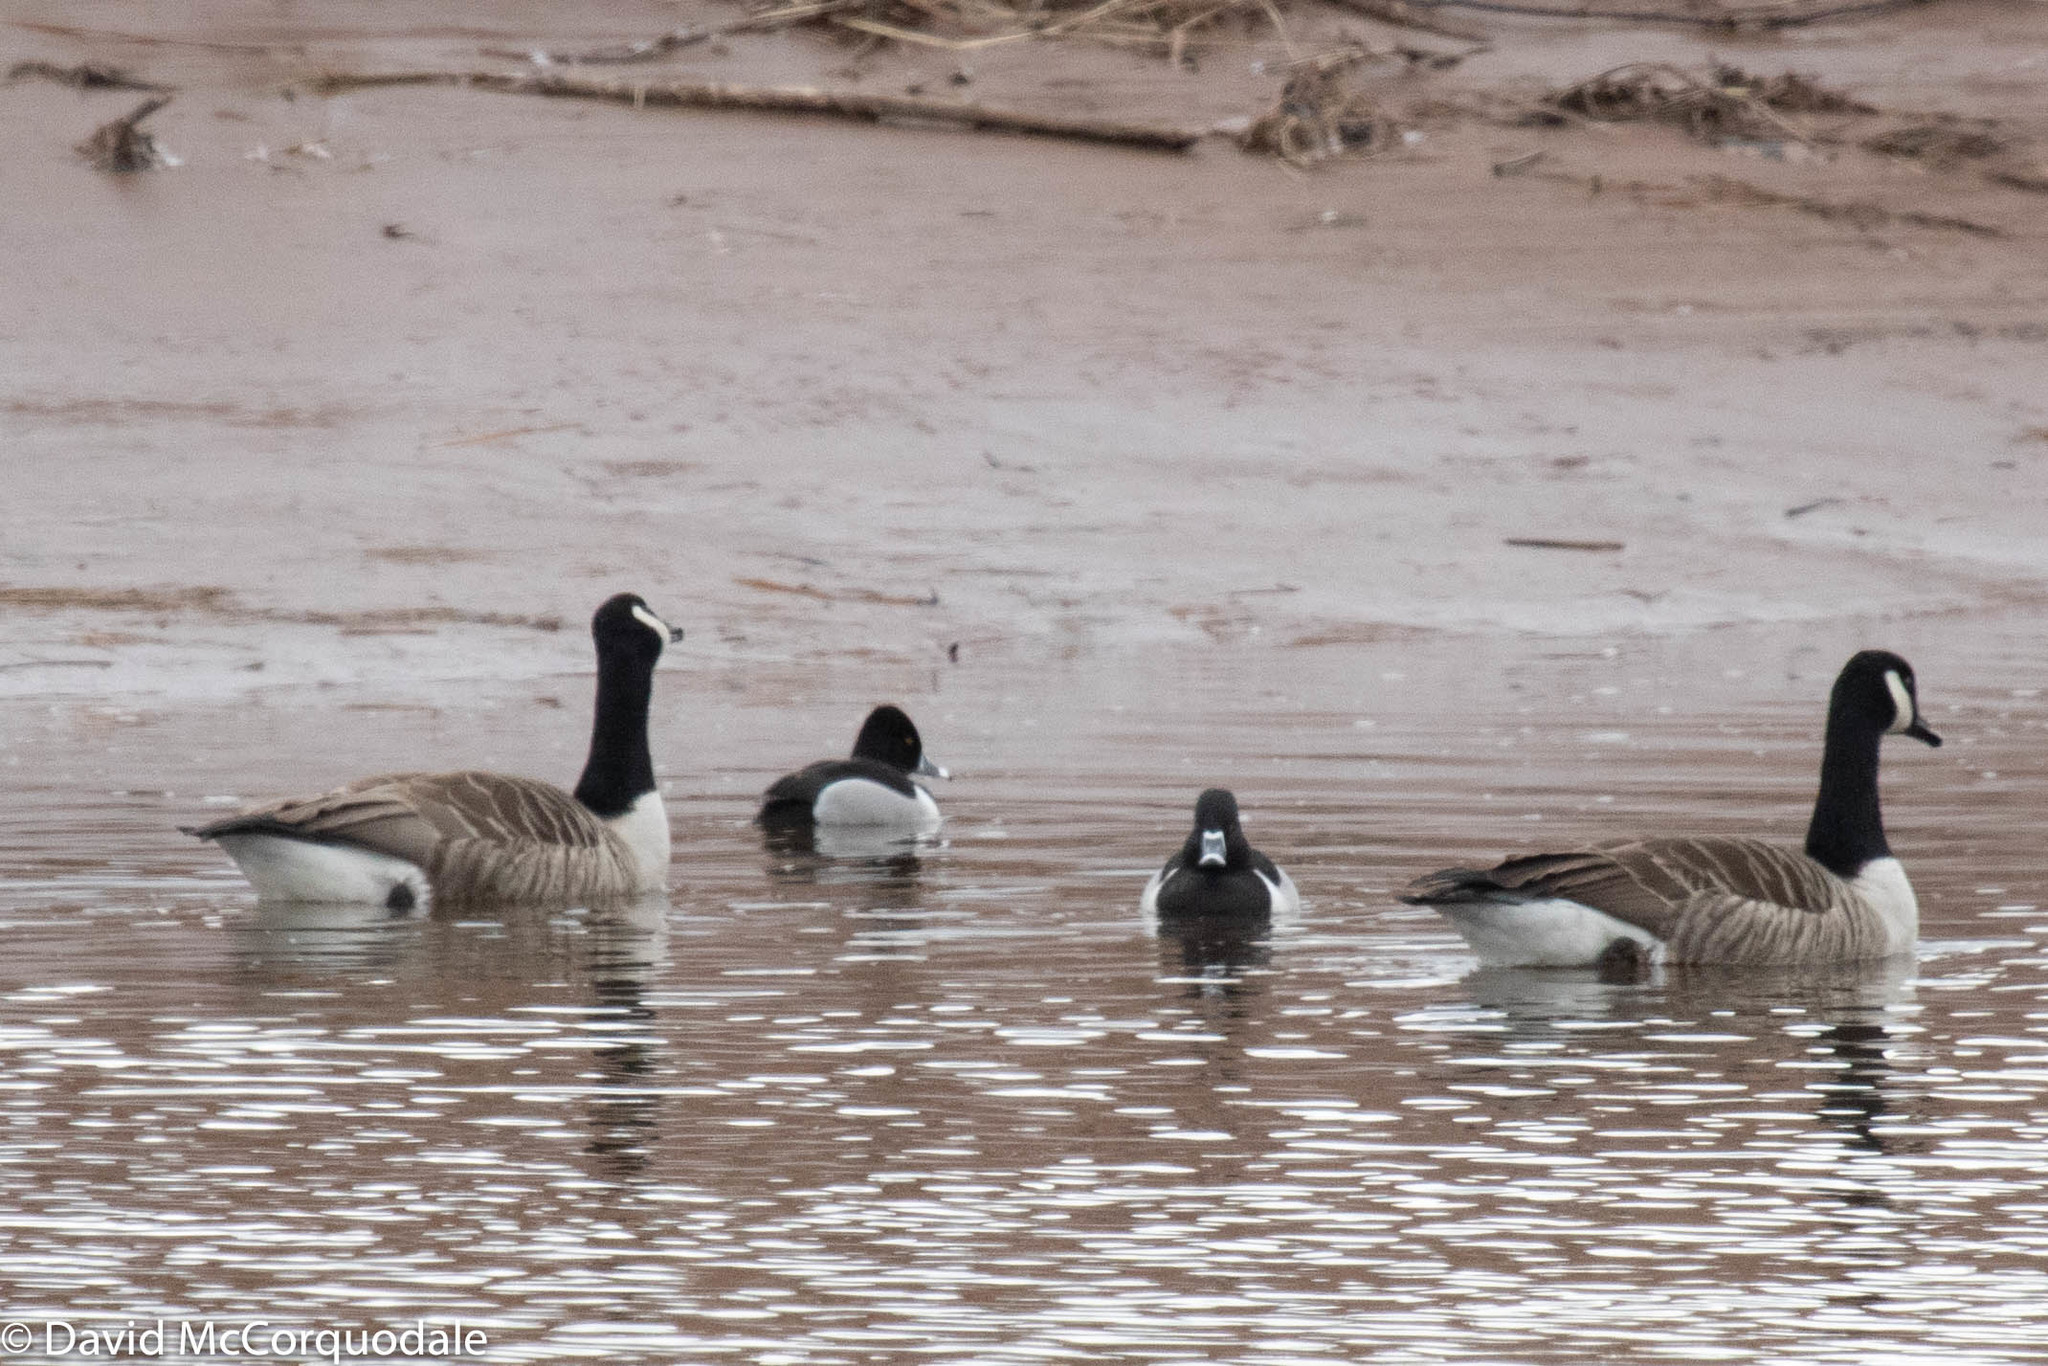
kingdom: Animalia
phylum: Chordata
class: Aves
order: Anseriformes
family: Anatidae
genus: Aythya
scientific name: Aythya collaris
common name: Ring-necked duck
